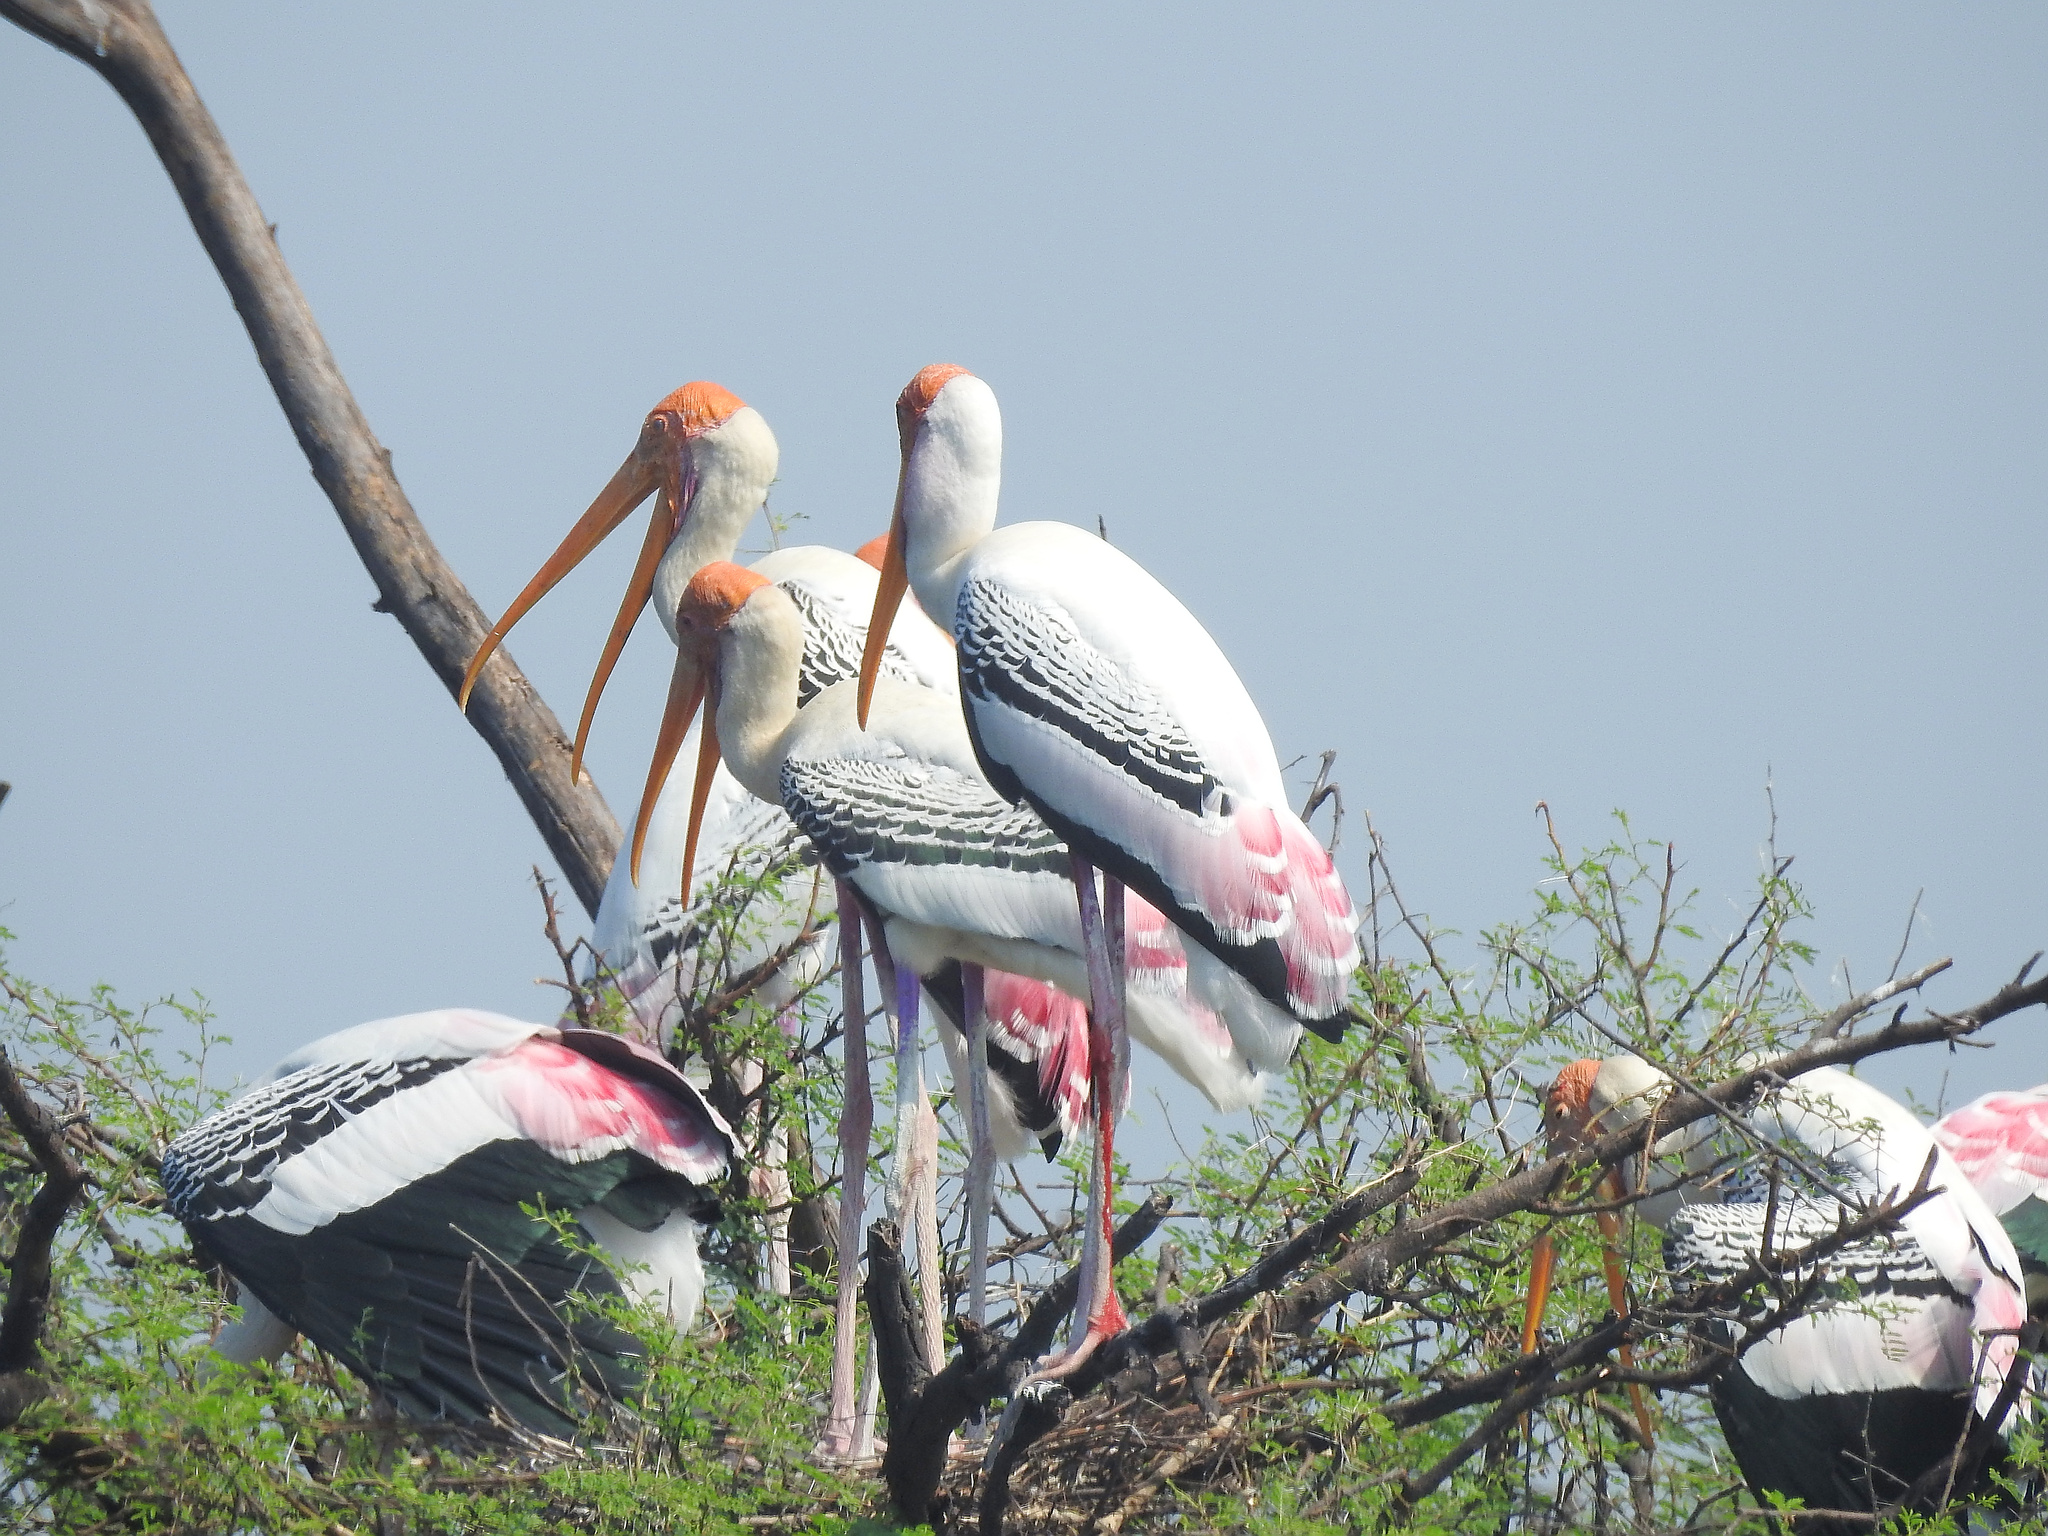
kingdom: Animalia
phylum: Chordata
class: Aves
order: Ciconiiformes
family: Ciconiidae
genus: Mycteria
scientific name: Mycteria leucocephala
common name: Painted stork
